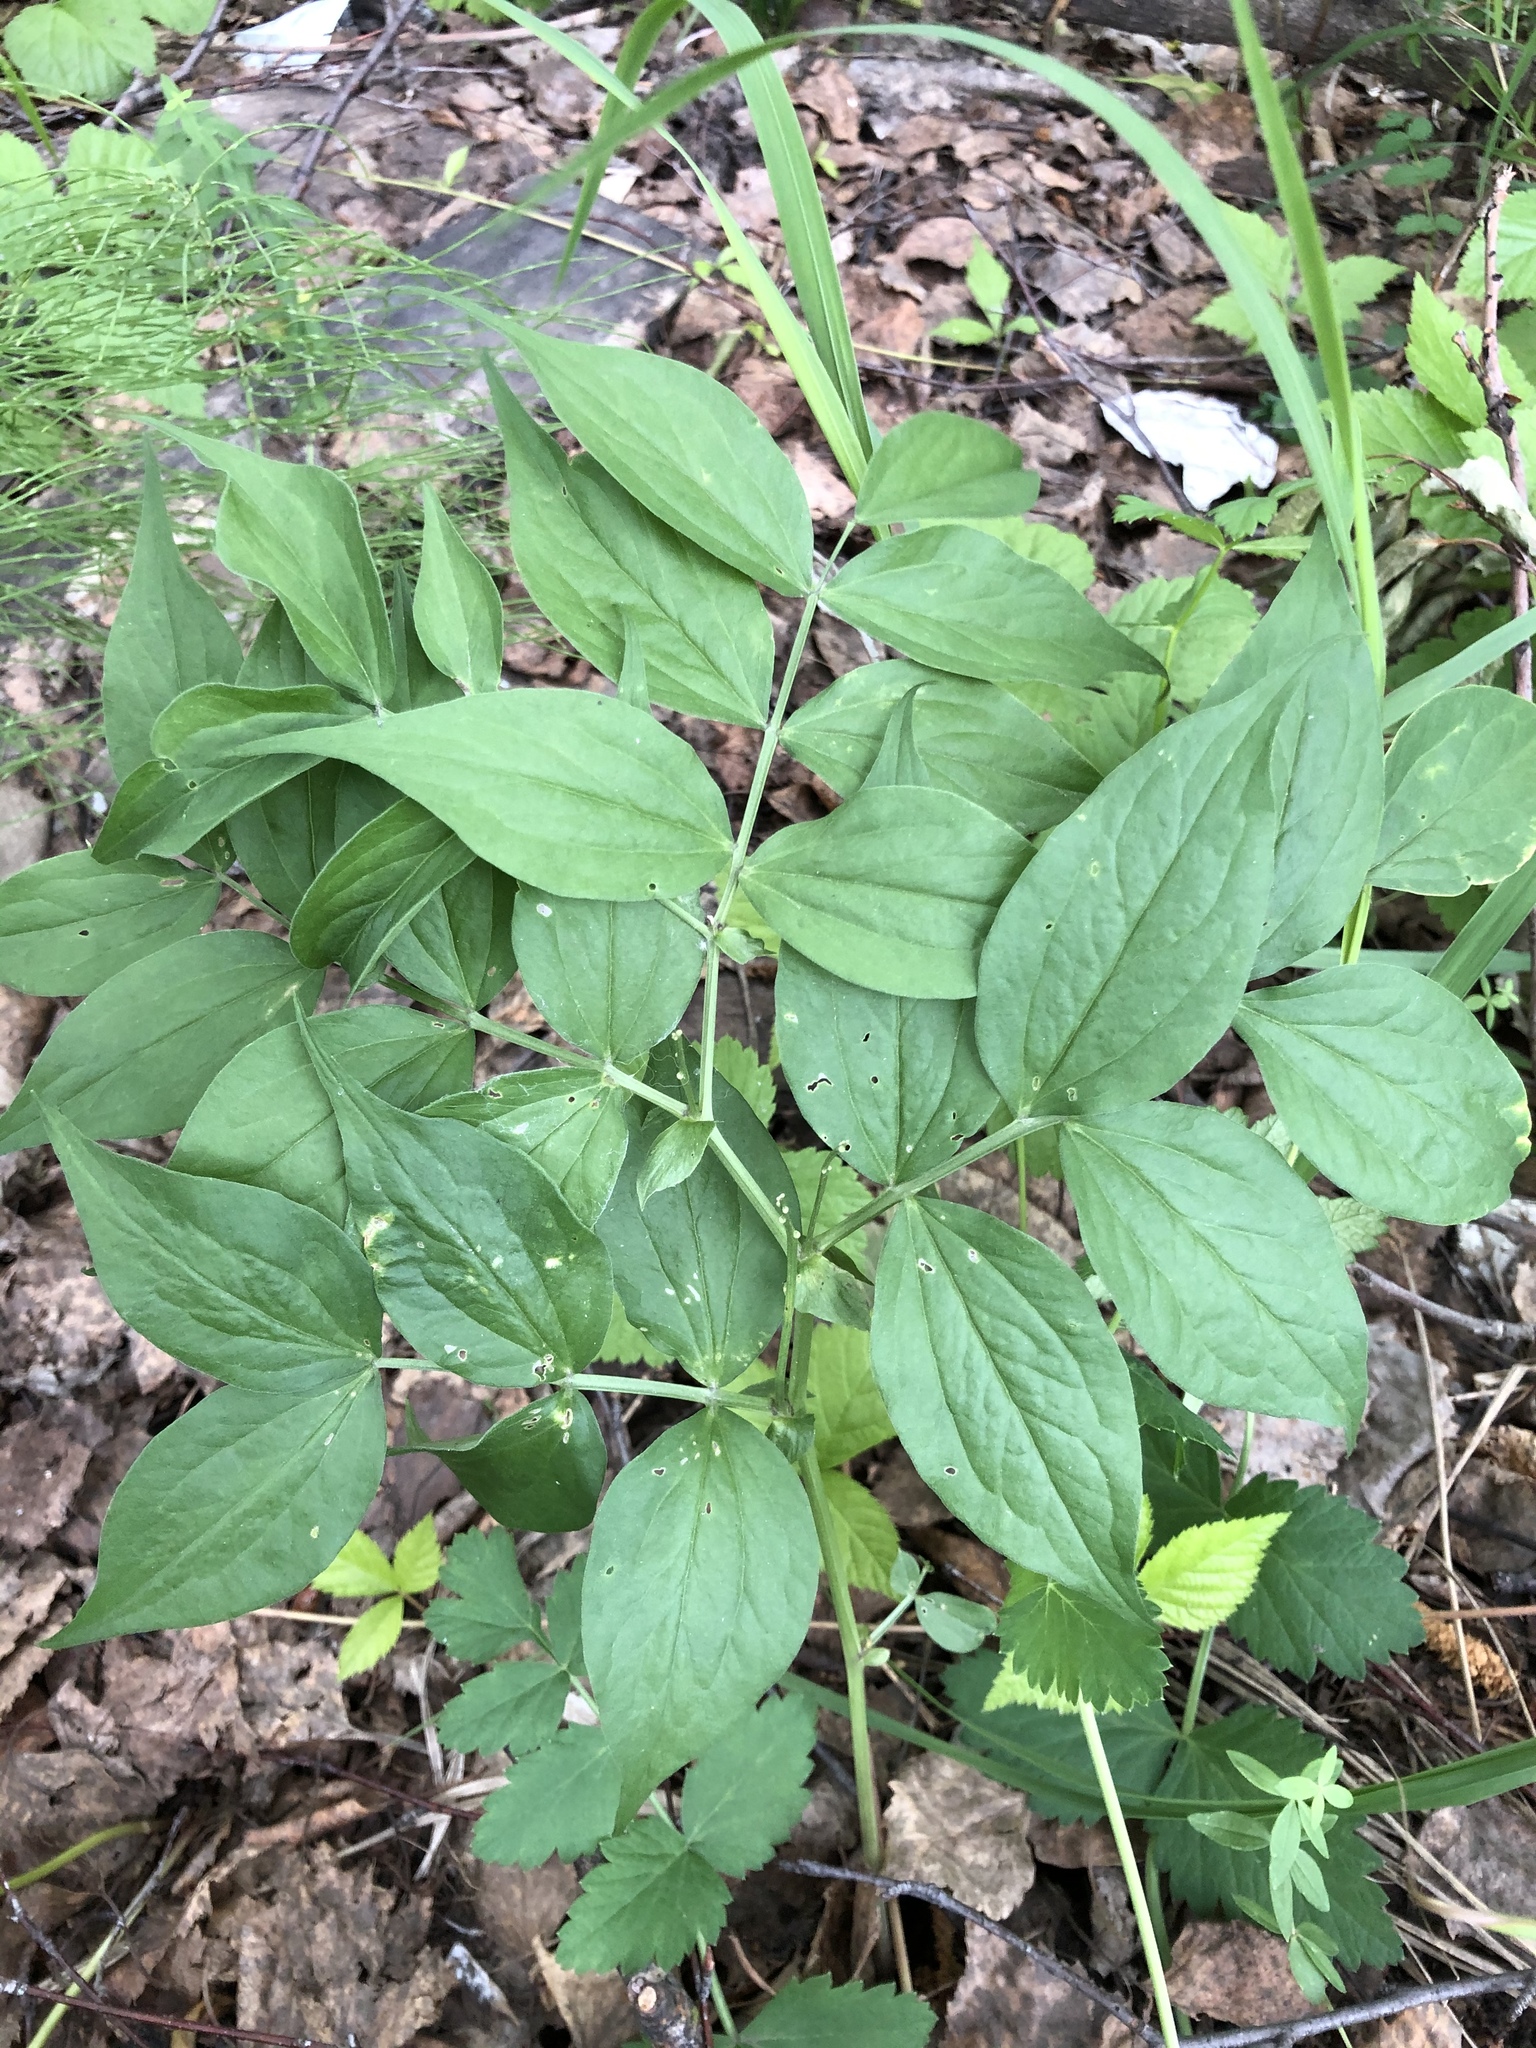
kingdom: Plantae
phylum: Tracheophyta
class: Magnoliopsida
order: Fabales
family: Fabaceae
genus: Lathyrus
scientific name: Lathyrus vernus
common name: Spring pea
